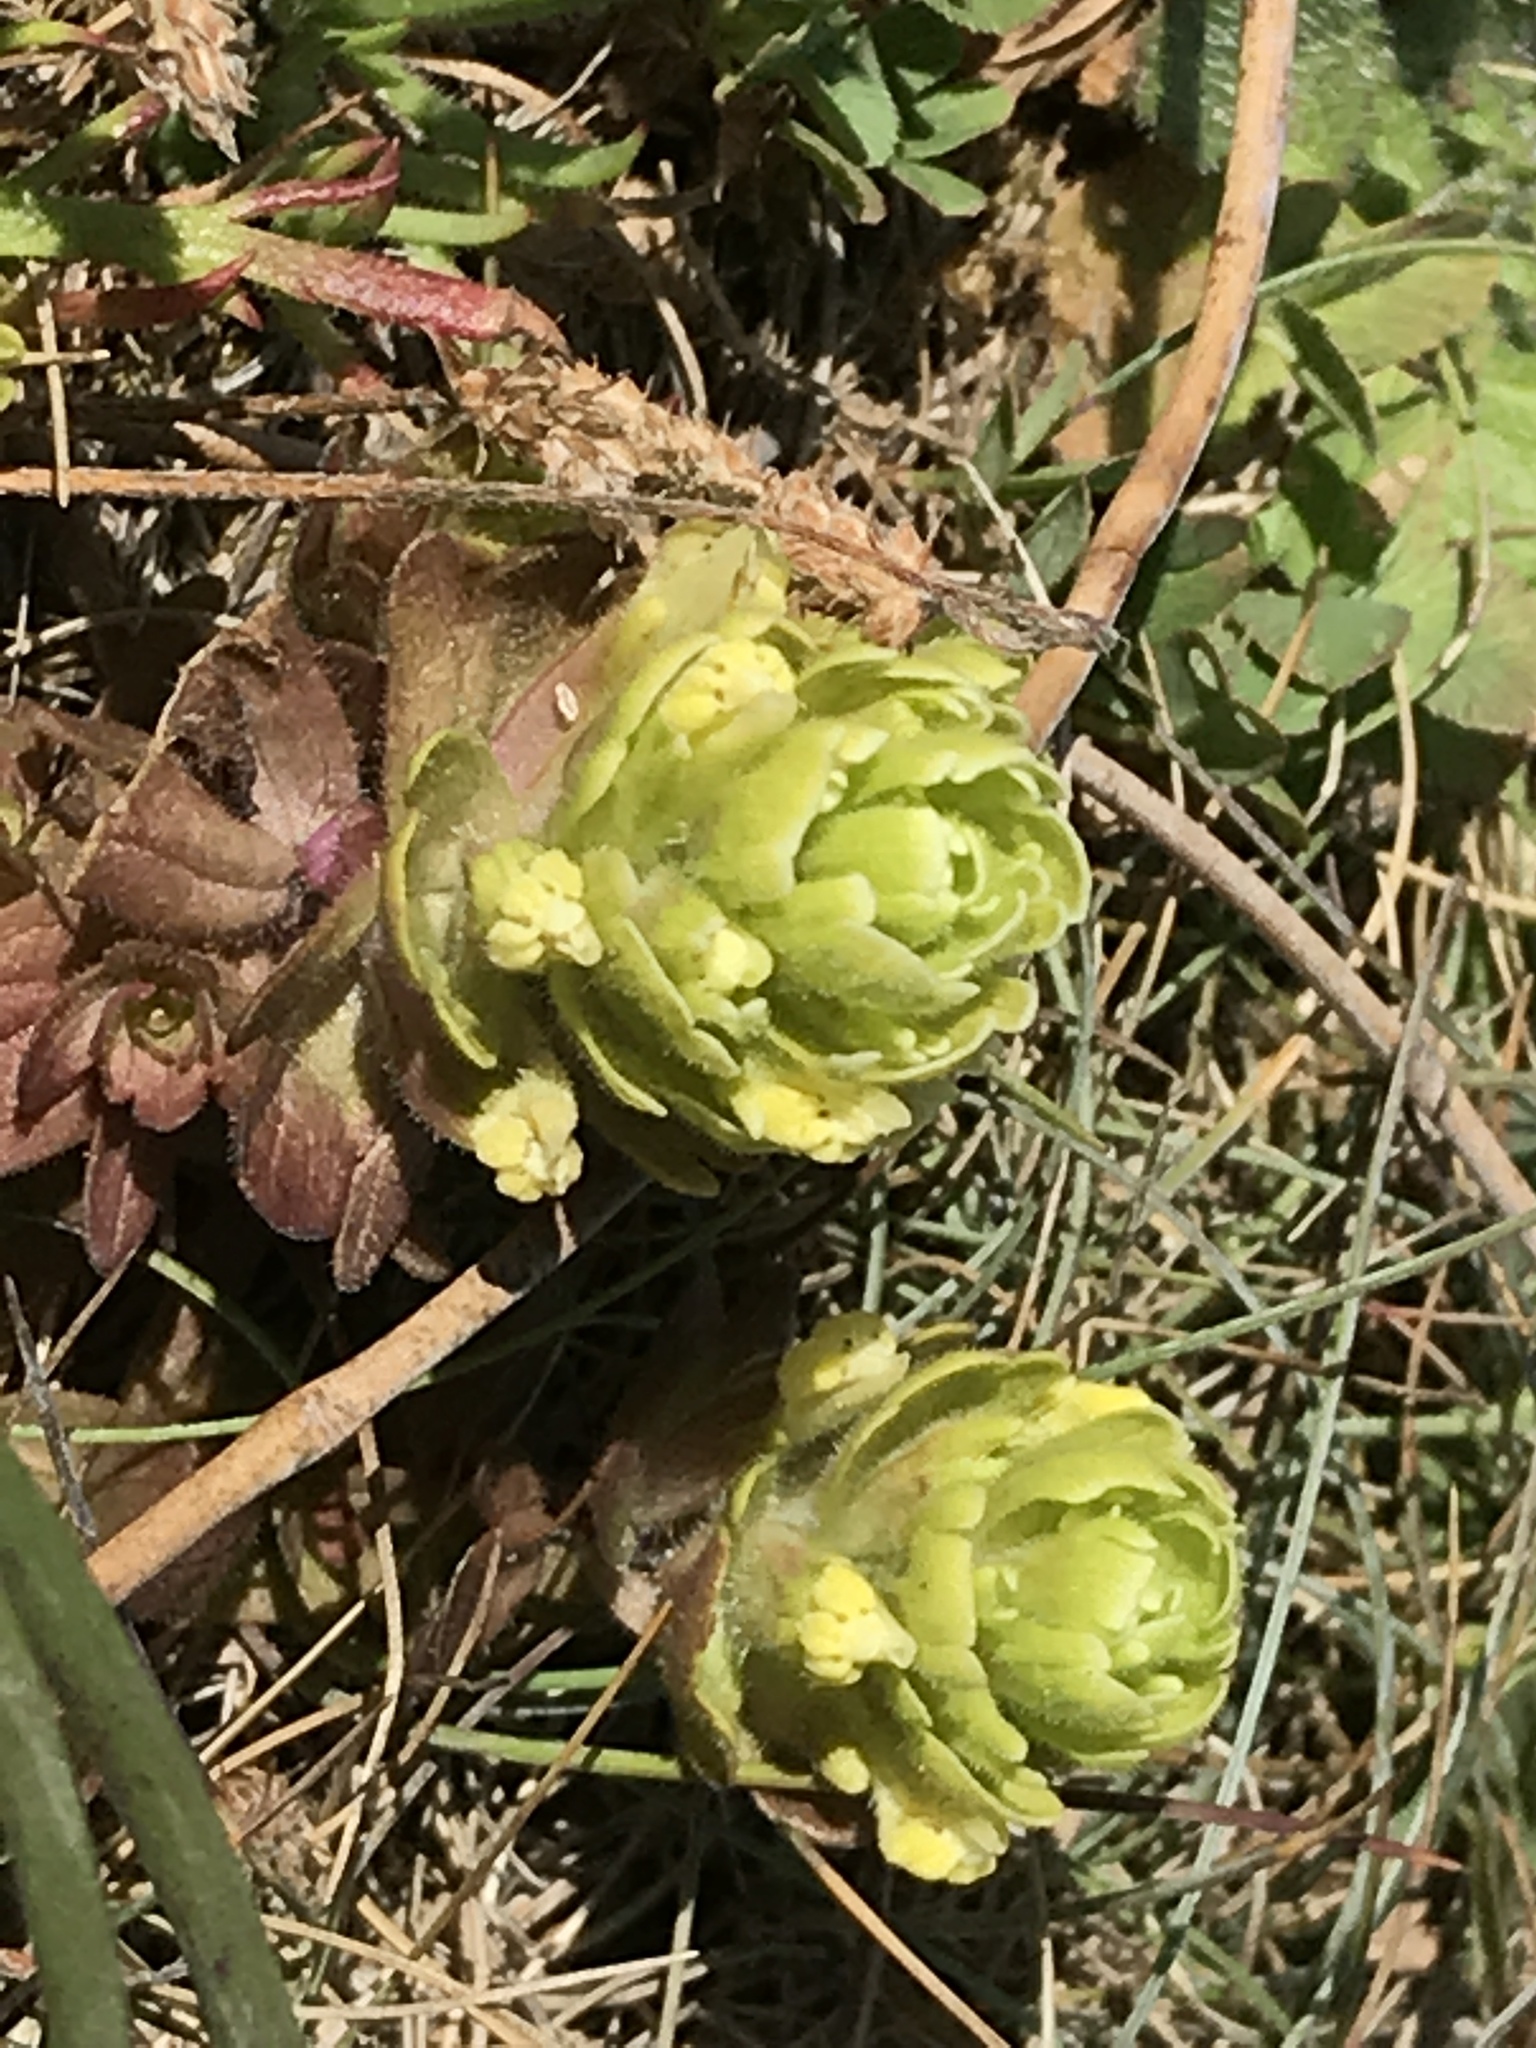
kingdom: Plantae
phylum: Tracheophyta
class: Magnoliopsida
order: Lamiales
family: Orobanchaceae
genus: Castilleja
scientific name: Castilleja ambigua
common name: Johnny-nip
